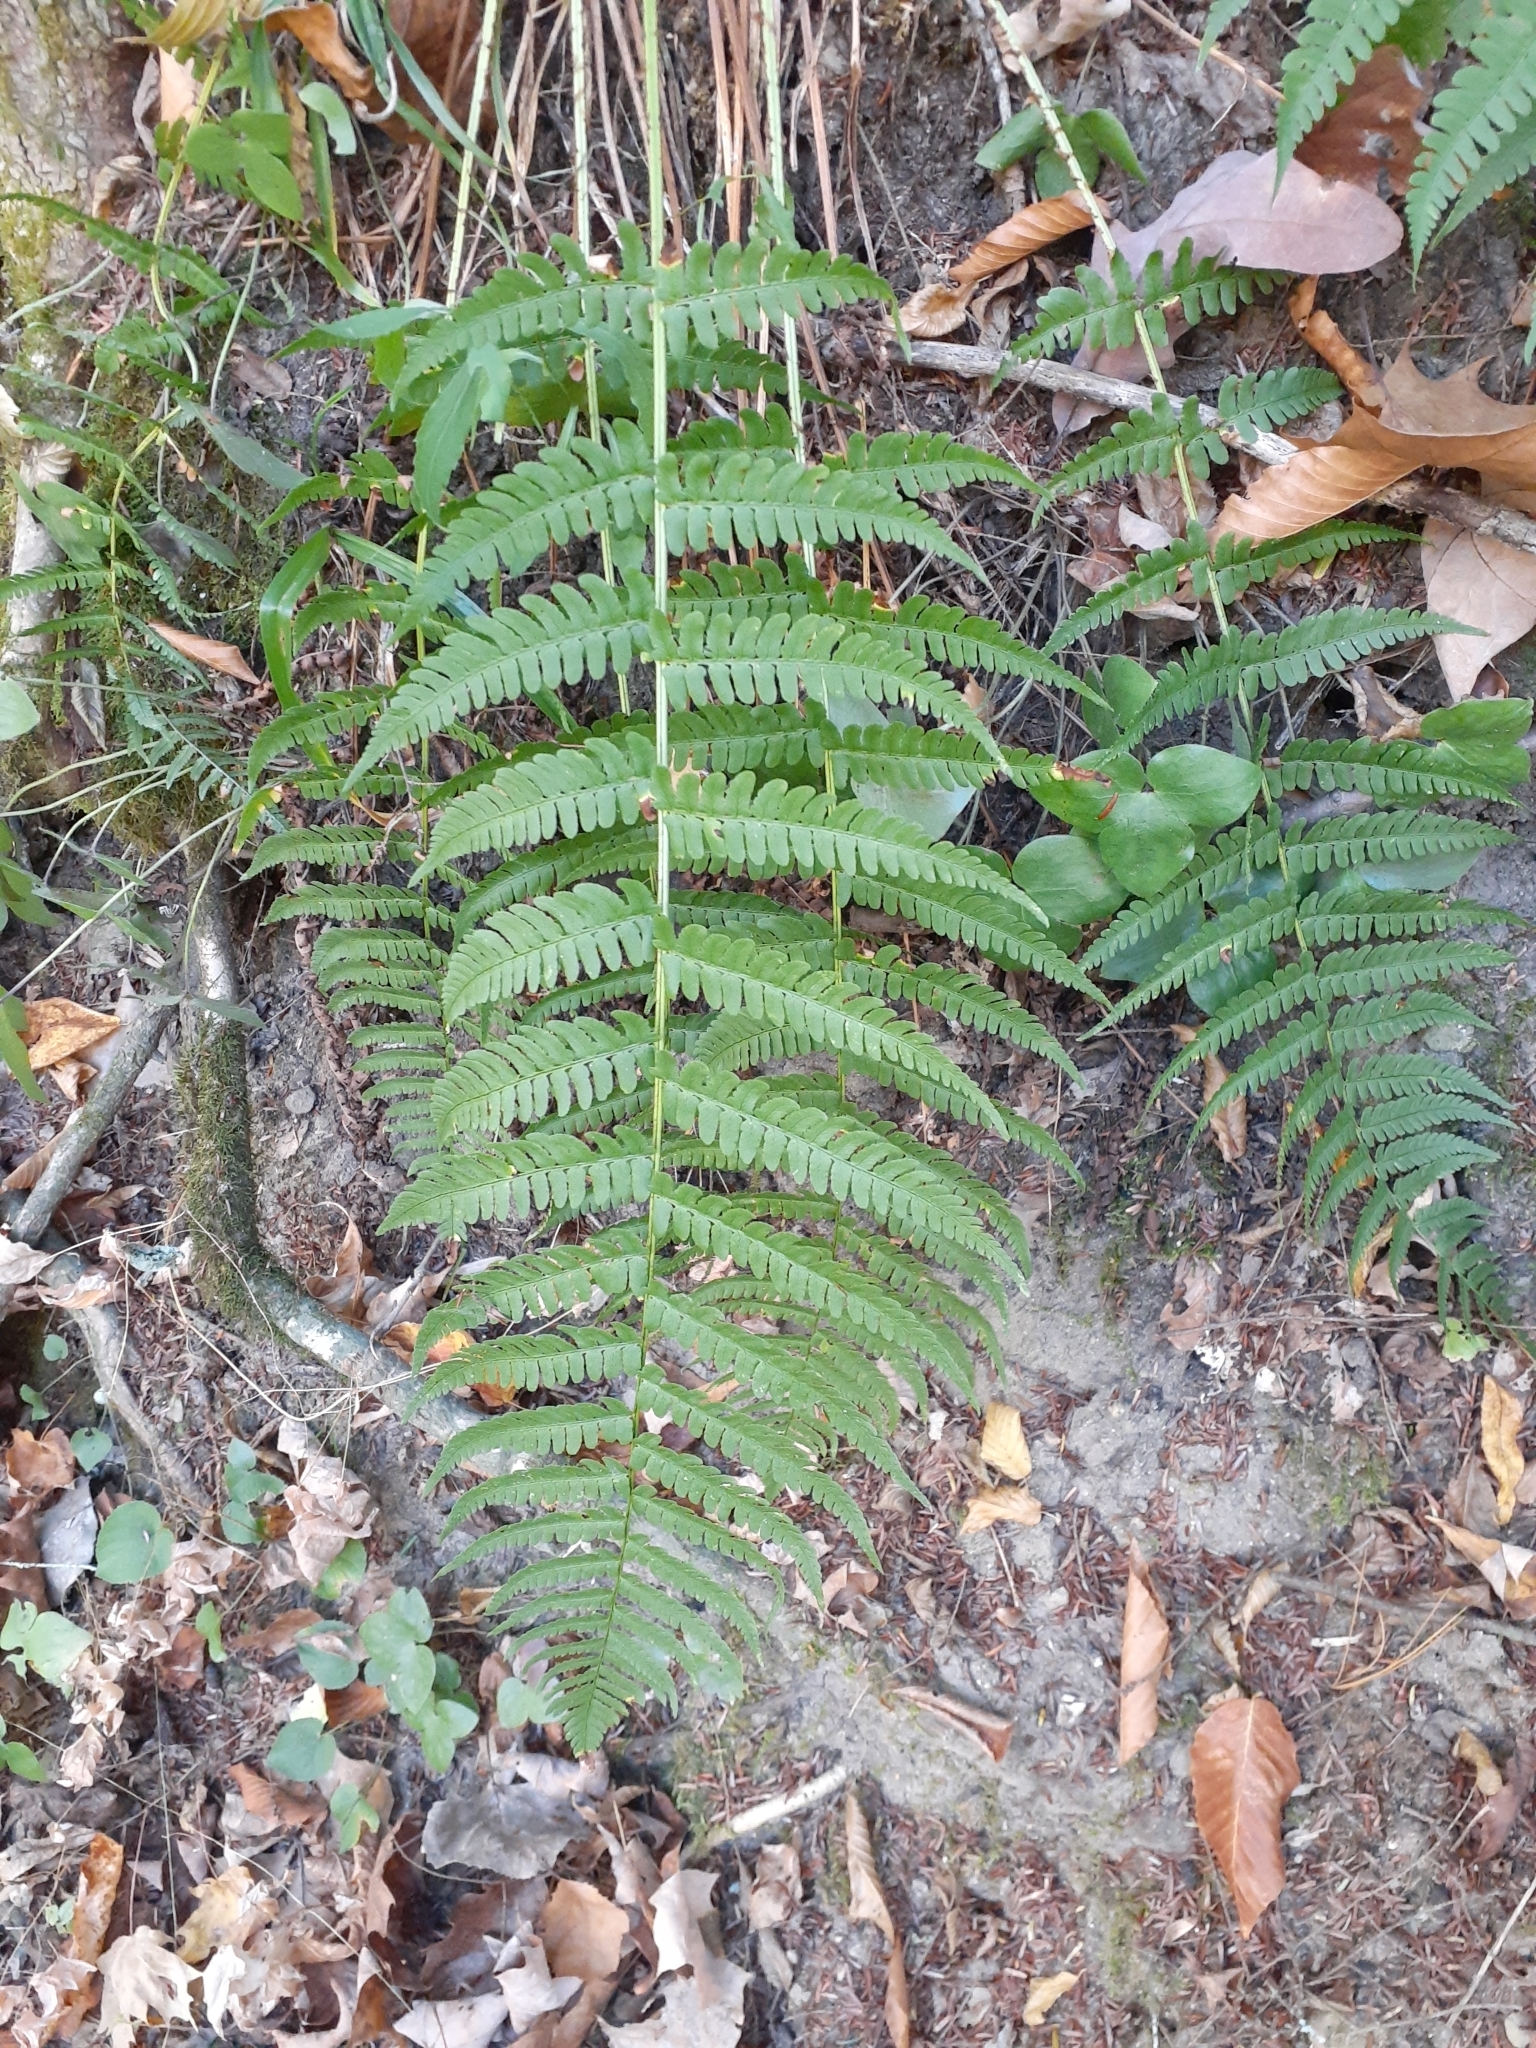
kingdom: Plantae
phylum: Tracheophyta
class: Polypodiopsida
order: Polypodiales
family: Dryopteridaceae
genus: Dryopteris
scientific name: Dryopteris marginalis
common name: Marginal wood fern
